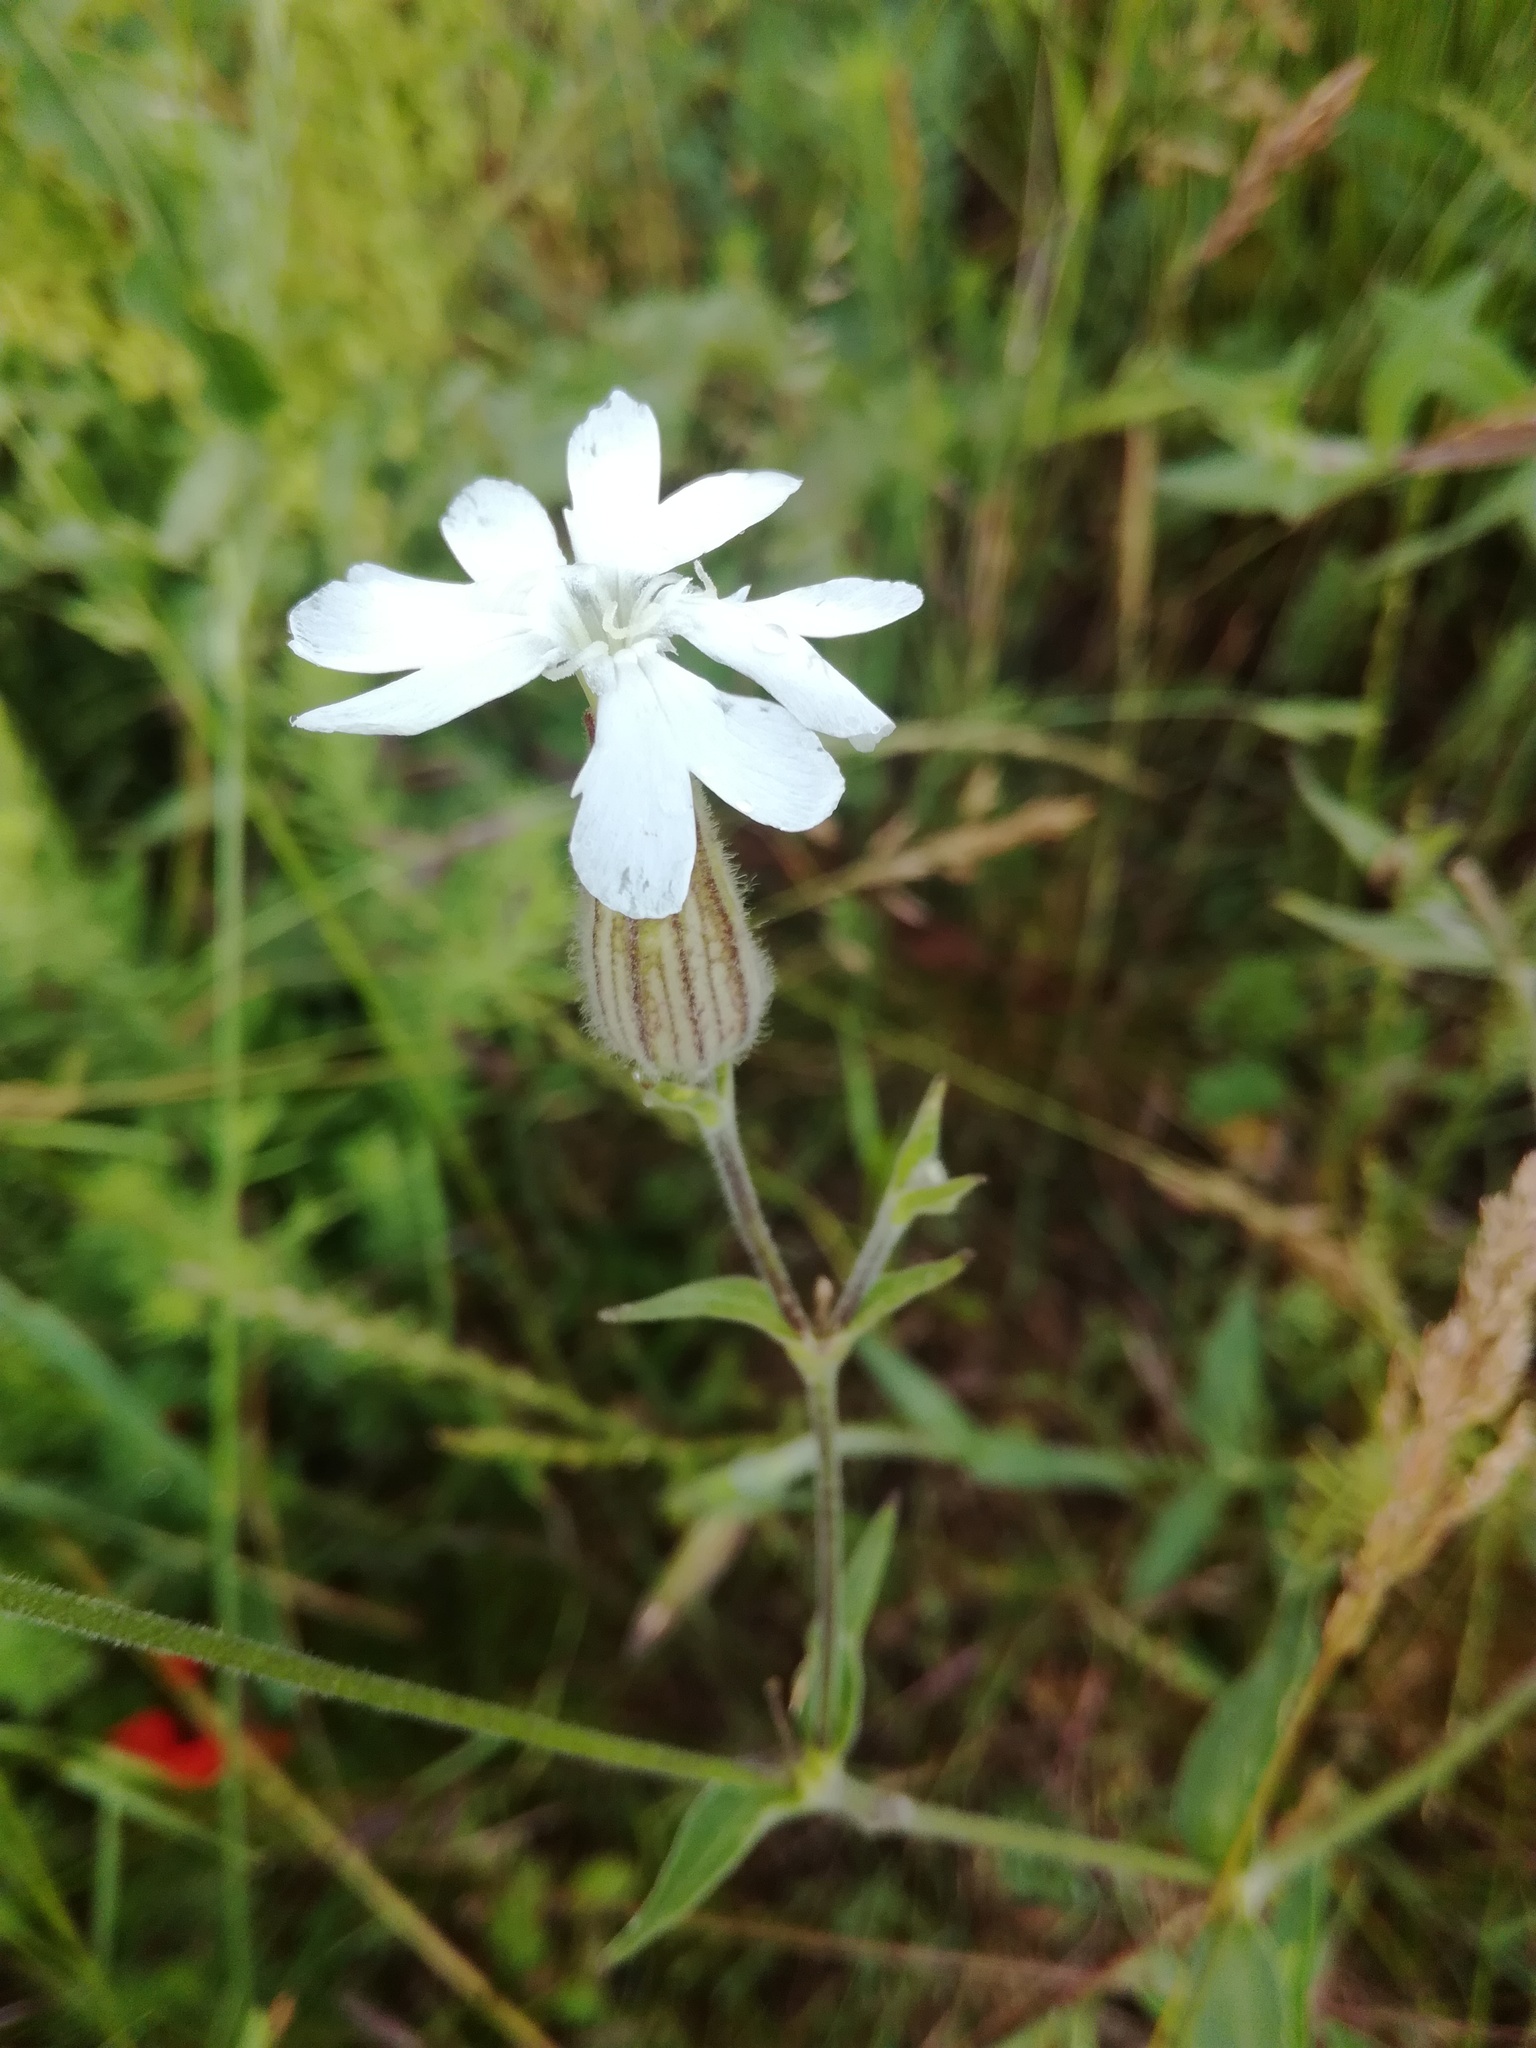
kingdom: Plantae
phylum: Tracheophyta
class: Magnoliopsida
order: Caryophyllales
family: Caryophyllaceae
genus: Silene
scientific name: Silene latifolia
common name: White campion
